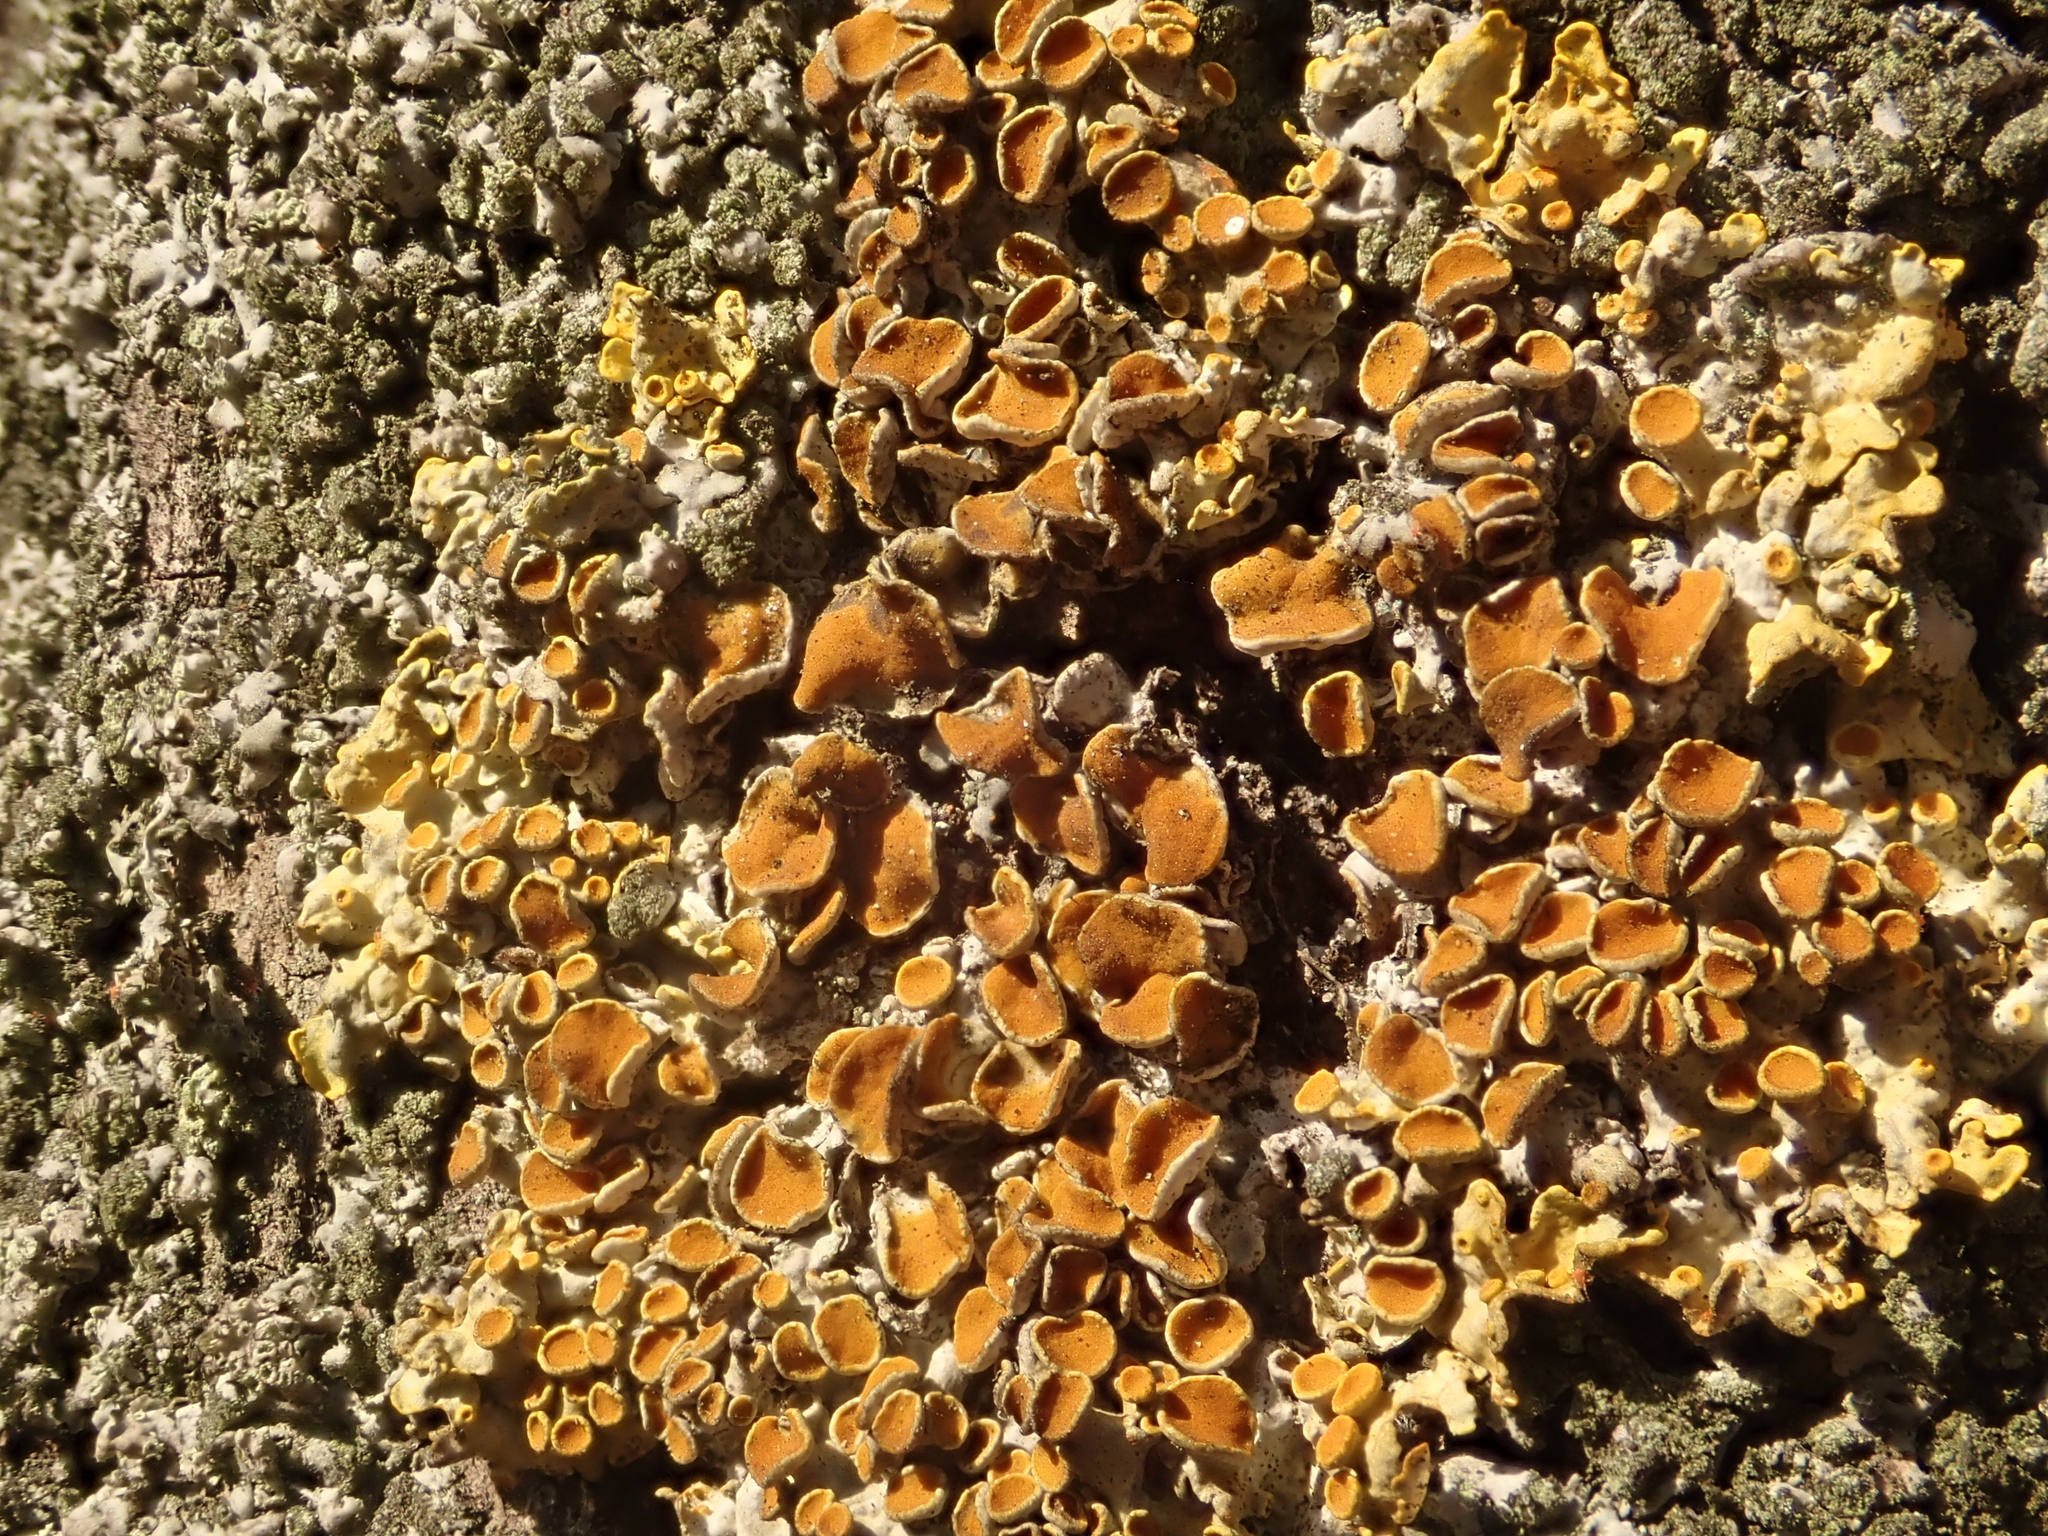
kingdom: Fungi
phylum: Ascomycota
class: Lecanoromycetes
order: Teloschistales
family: Teloschistaceae
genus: Xanthoria
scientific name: Xanthoria parietina
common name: Common orange lichen
